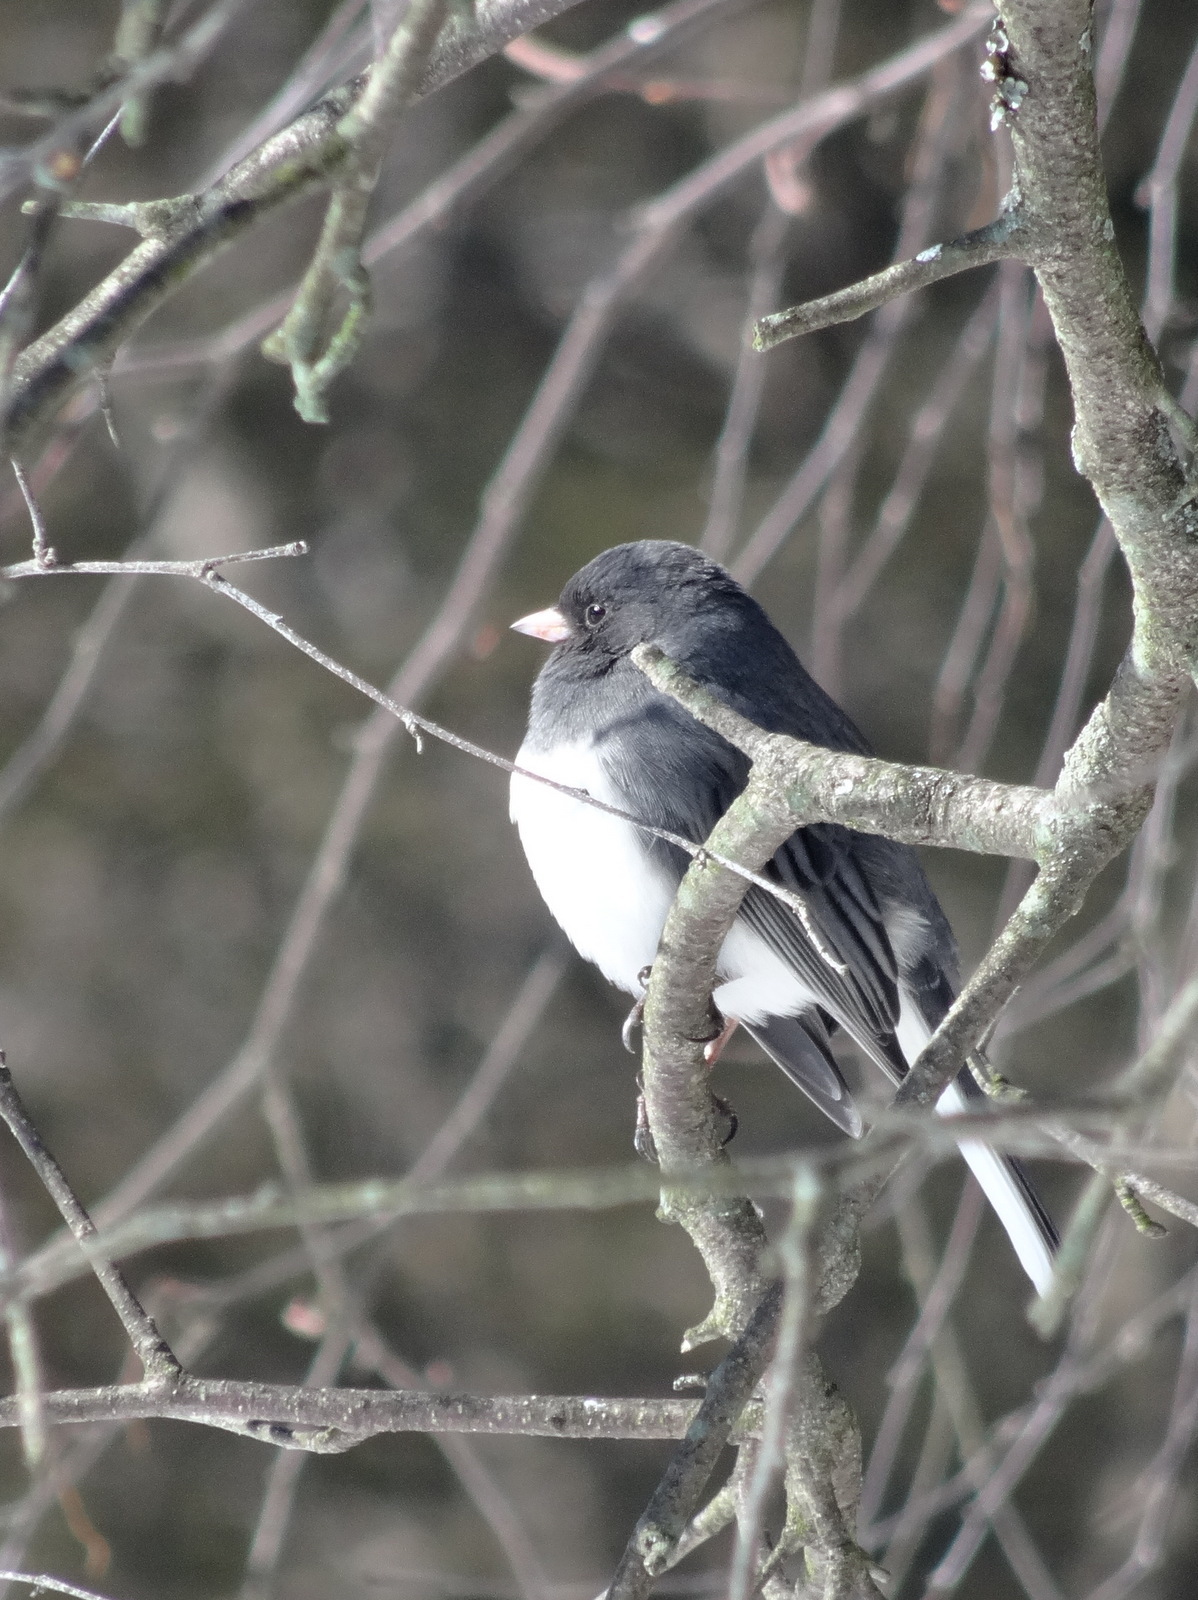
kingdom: Animalia
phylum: Chordata
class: Aves
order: Passeriformes
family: Passerellidae
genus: Junco
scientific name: Junco hyemalis
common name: Dark-eyed junco
